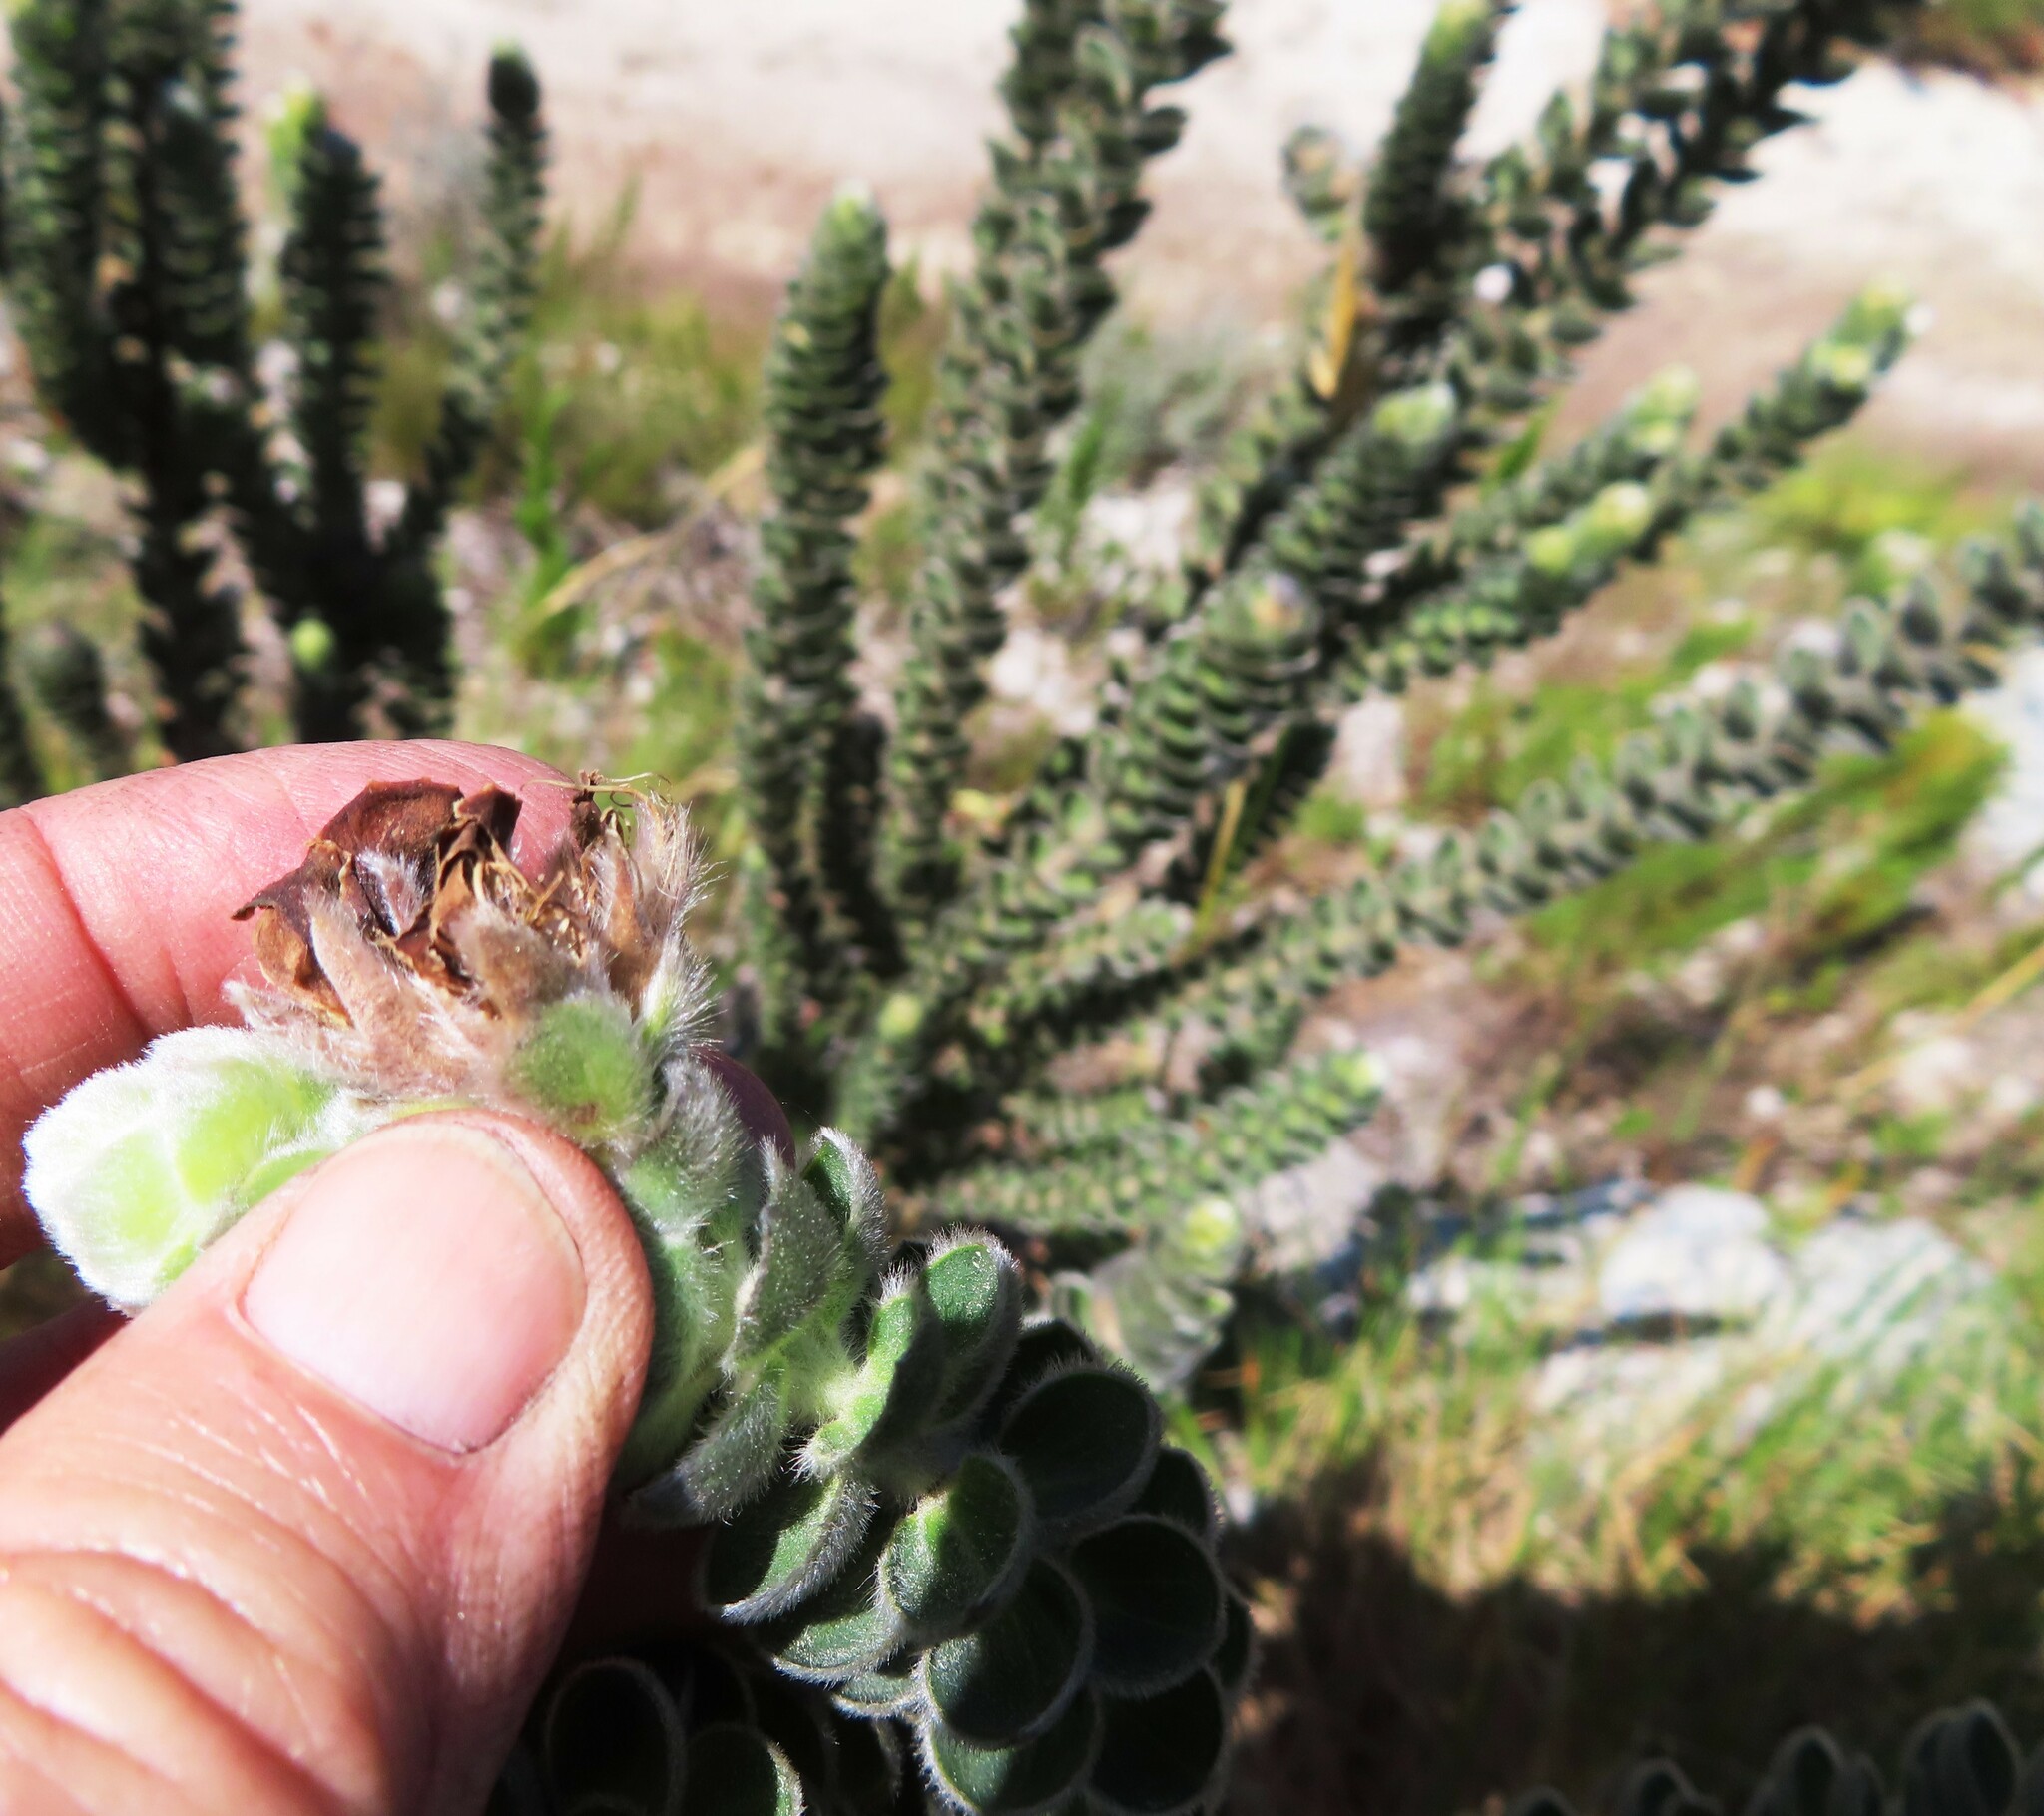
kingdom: Plantae
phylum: Tracheophyta
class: Magnoliopsida
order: Fabales
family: Fabaceae
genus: Liparia
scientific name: Liparia vestita
